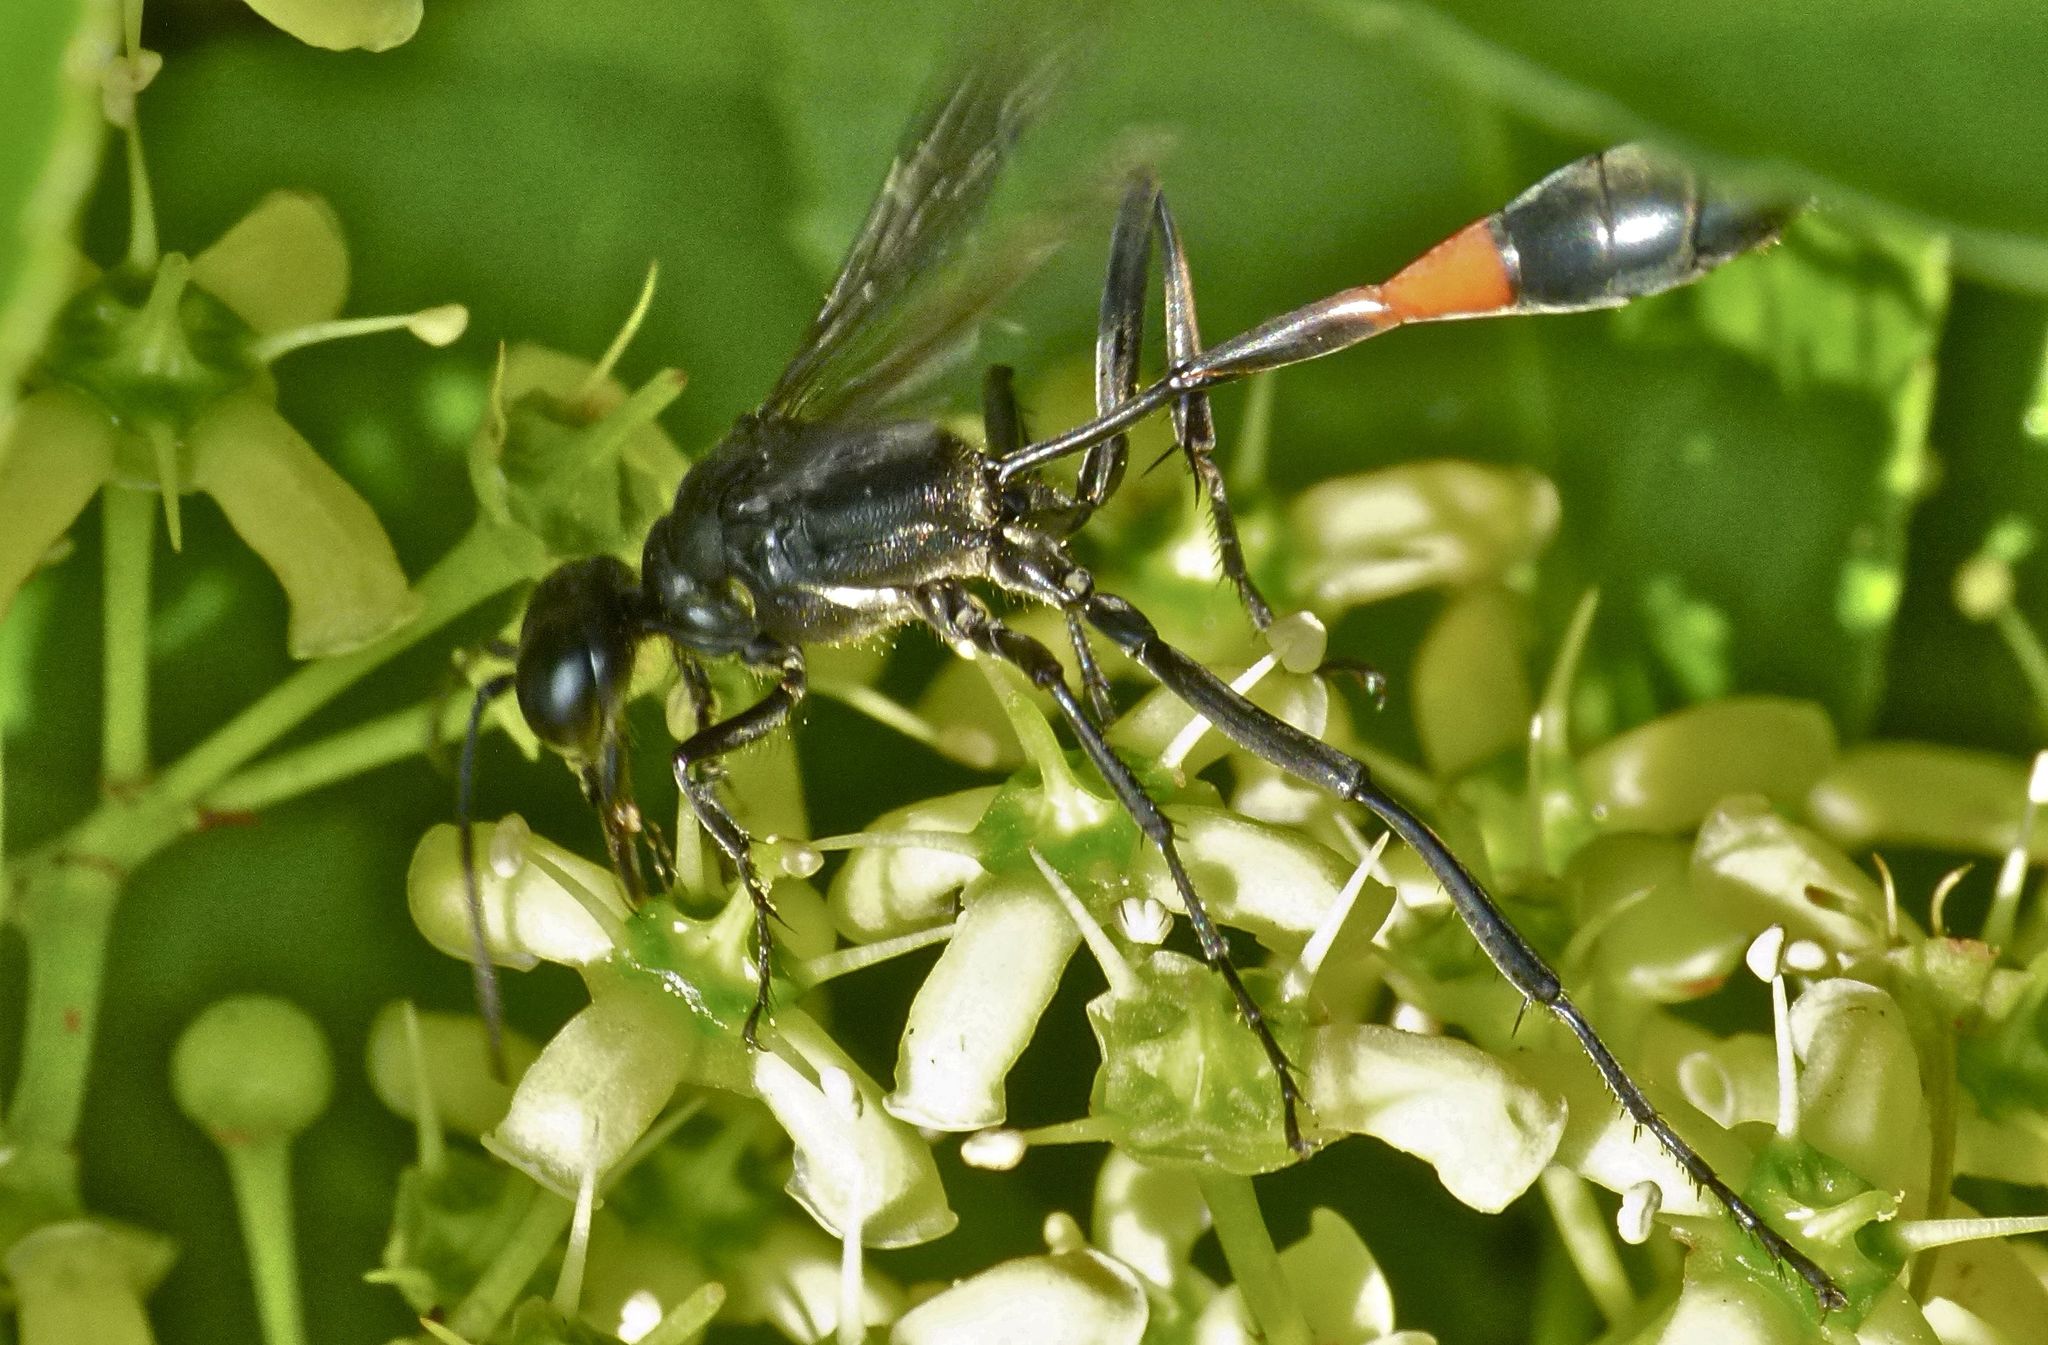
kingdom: Animalia
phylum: Arthropoda
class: Insecta
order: Hymenoptera
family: Sphecidae
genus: Ammophila
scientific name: Ammophila procera
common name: Common thread-waisted wasp
